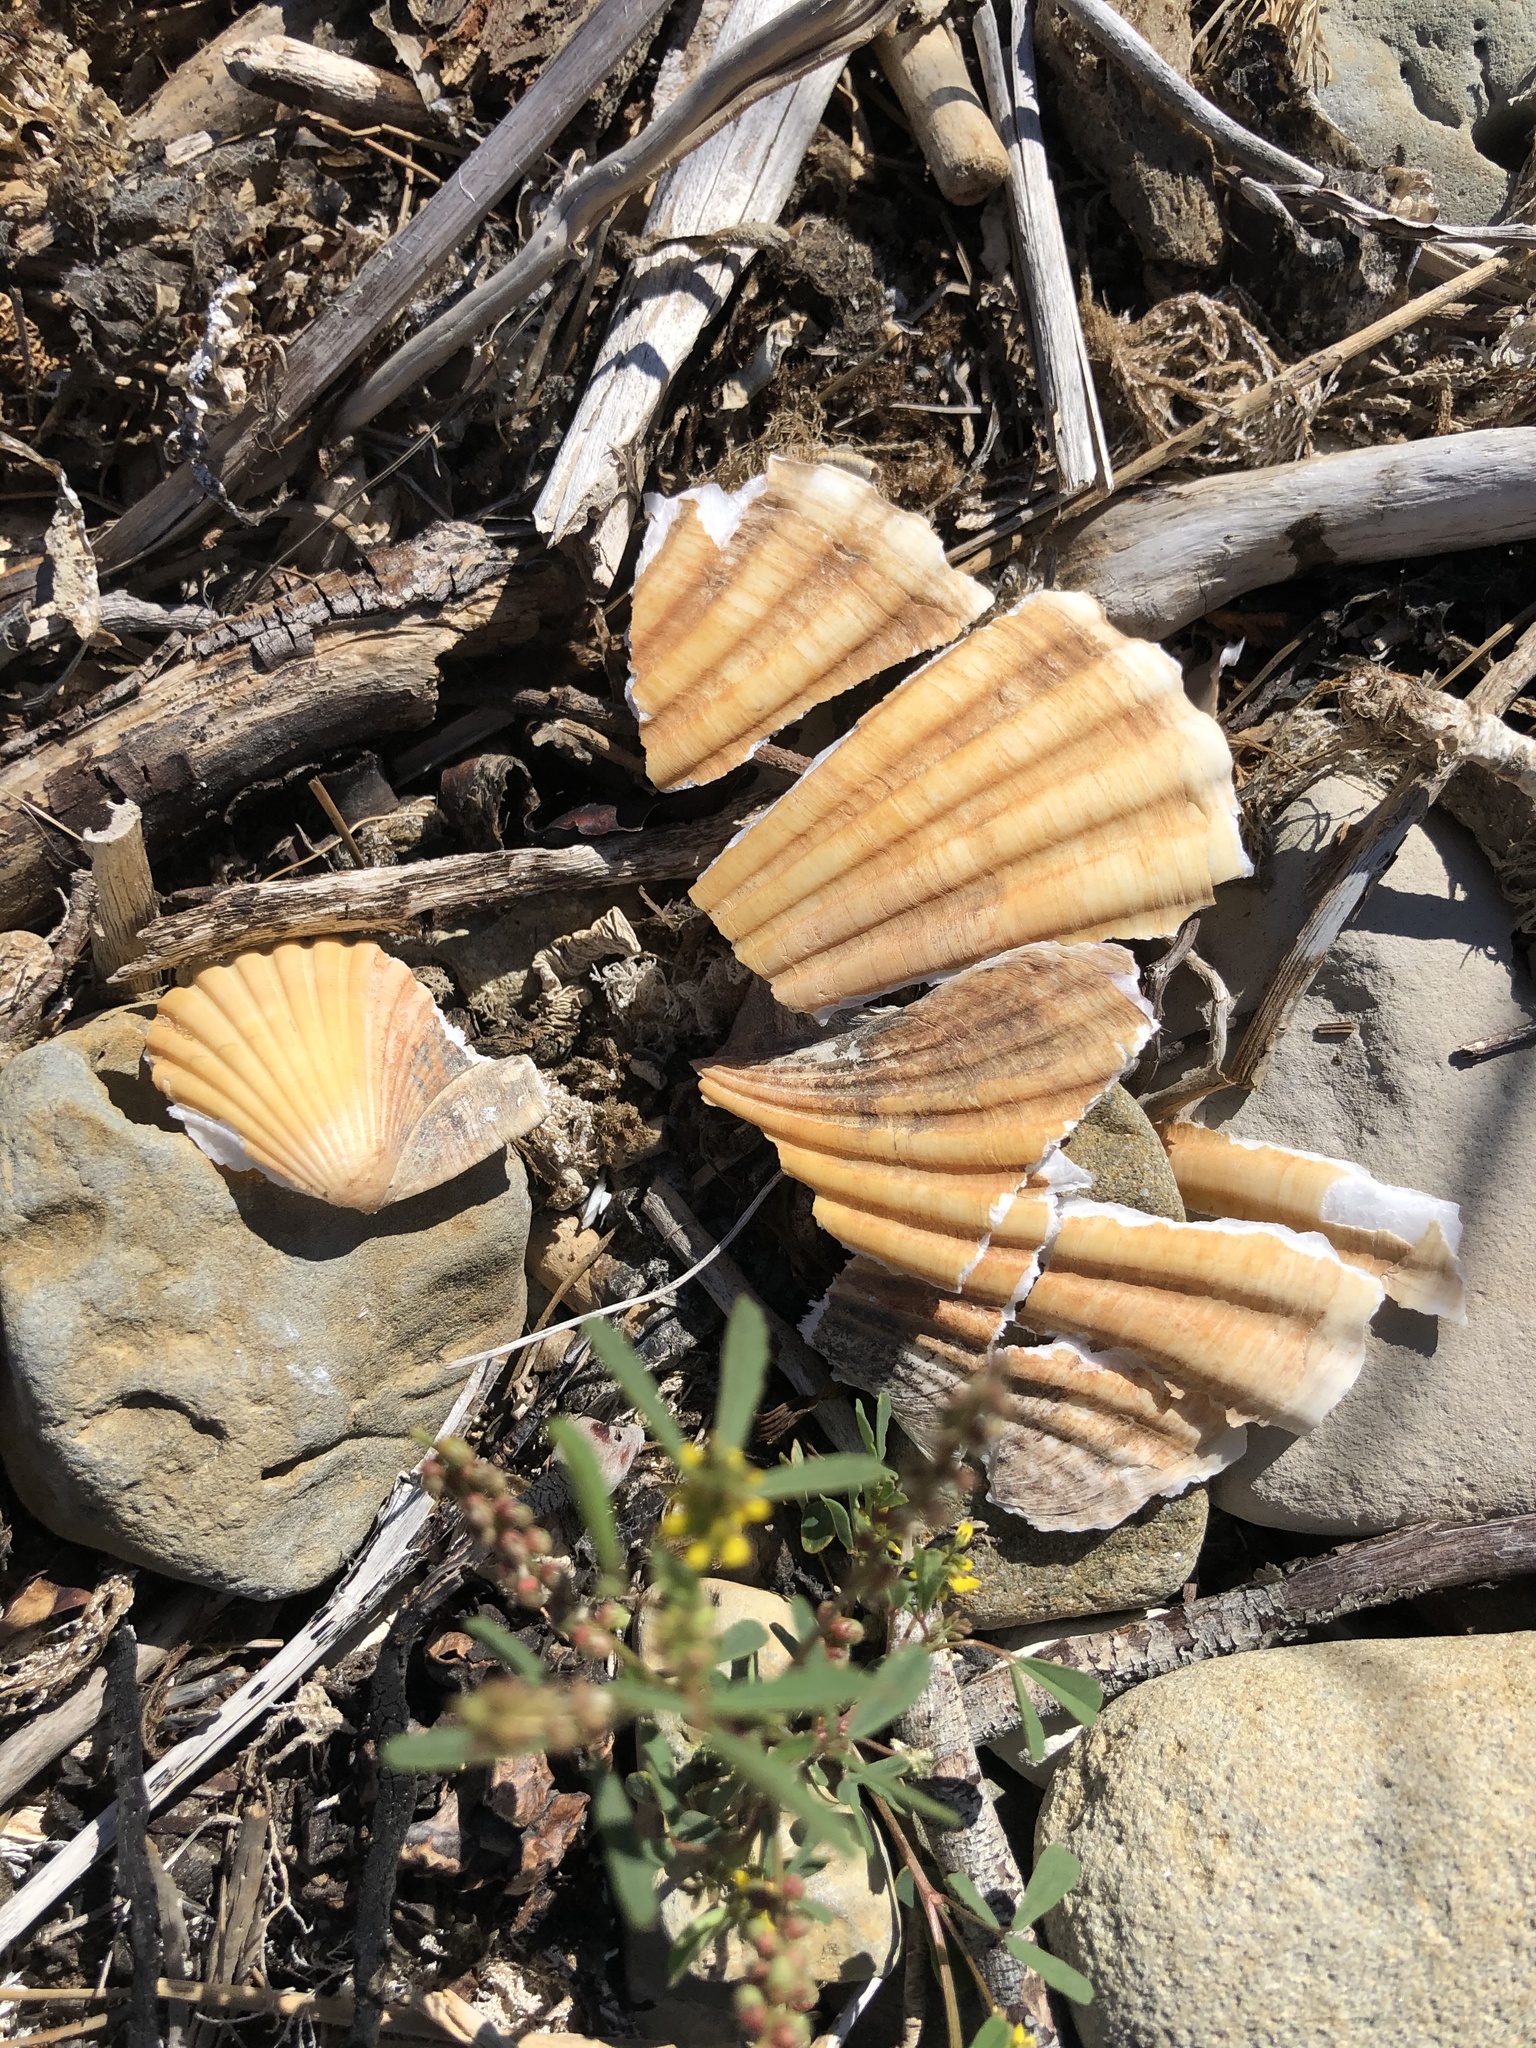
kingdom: Animalia
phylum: Mollusca
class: Bivalvia
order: Pectinida
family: Pectinidae
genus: Pecten
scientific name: Pecten novaezelandiae
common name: New zealand scallop
